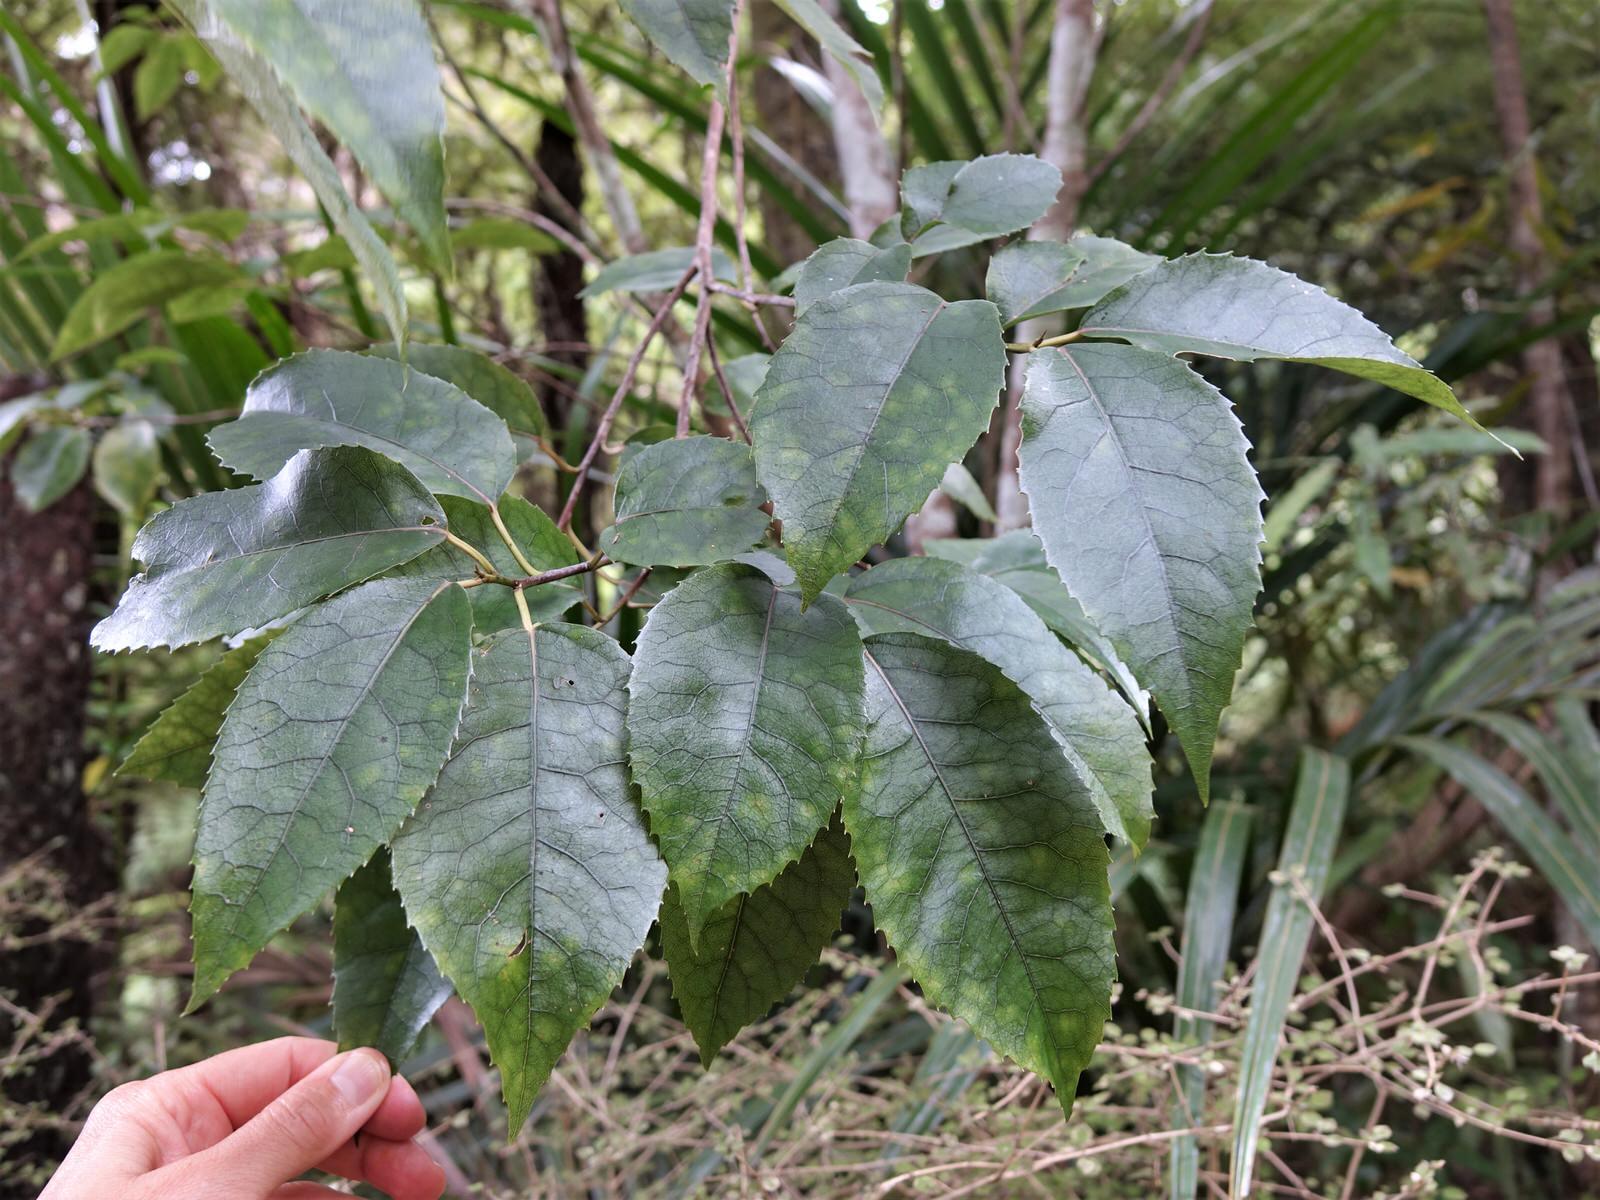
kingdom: Plantae
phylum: Tracheophyta
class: Magnoliopsida
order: Malvales
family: Malvaceae
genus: Hoheria
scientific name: Hoheria populnea
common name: Lacebark
